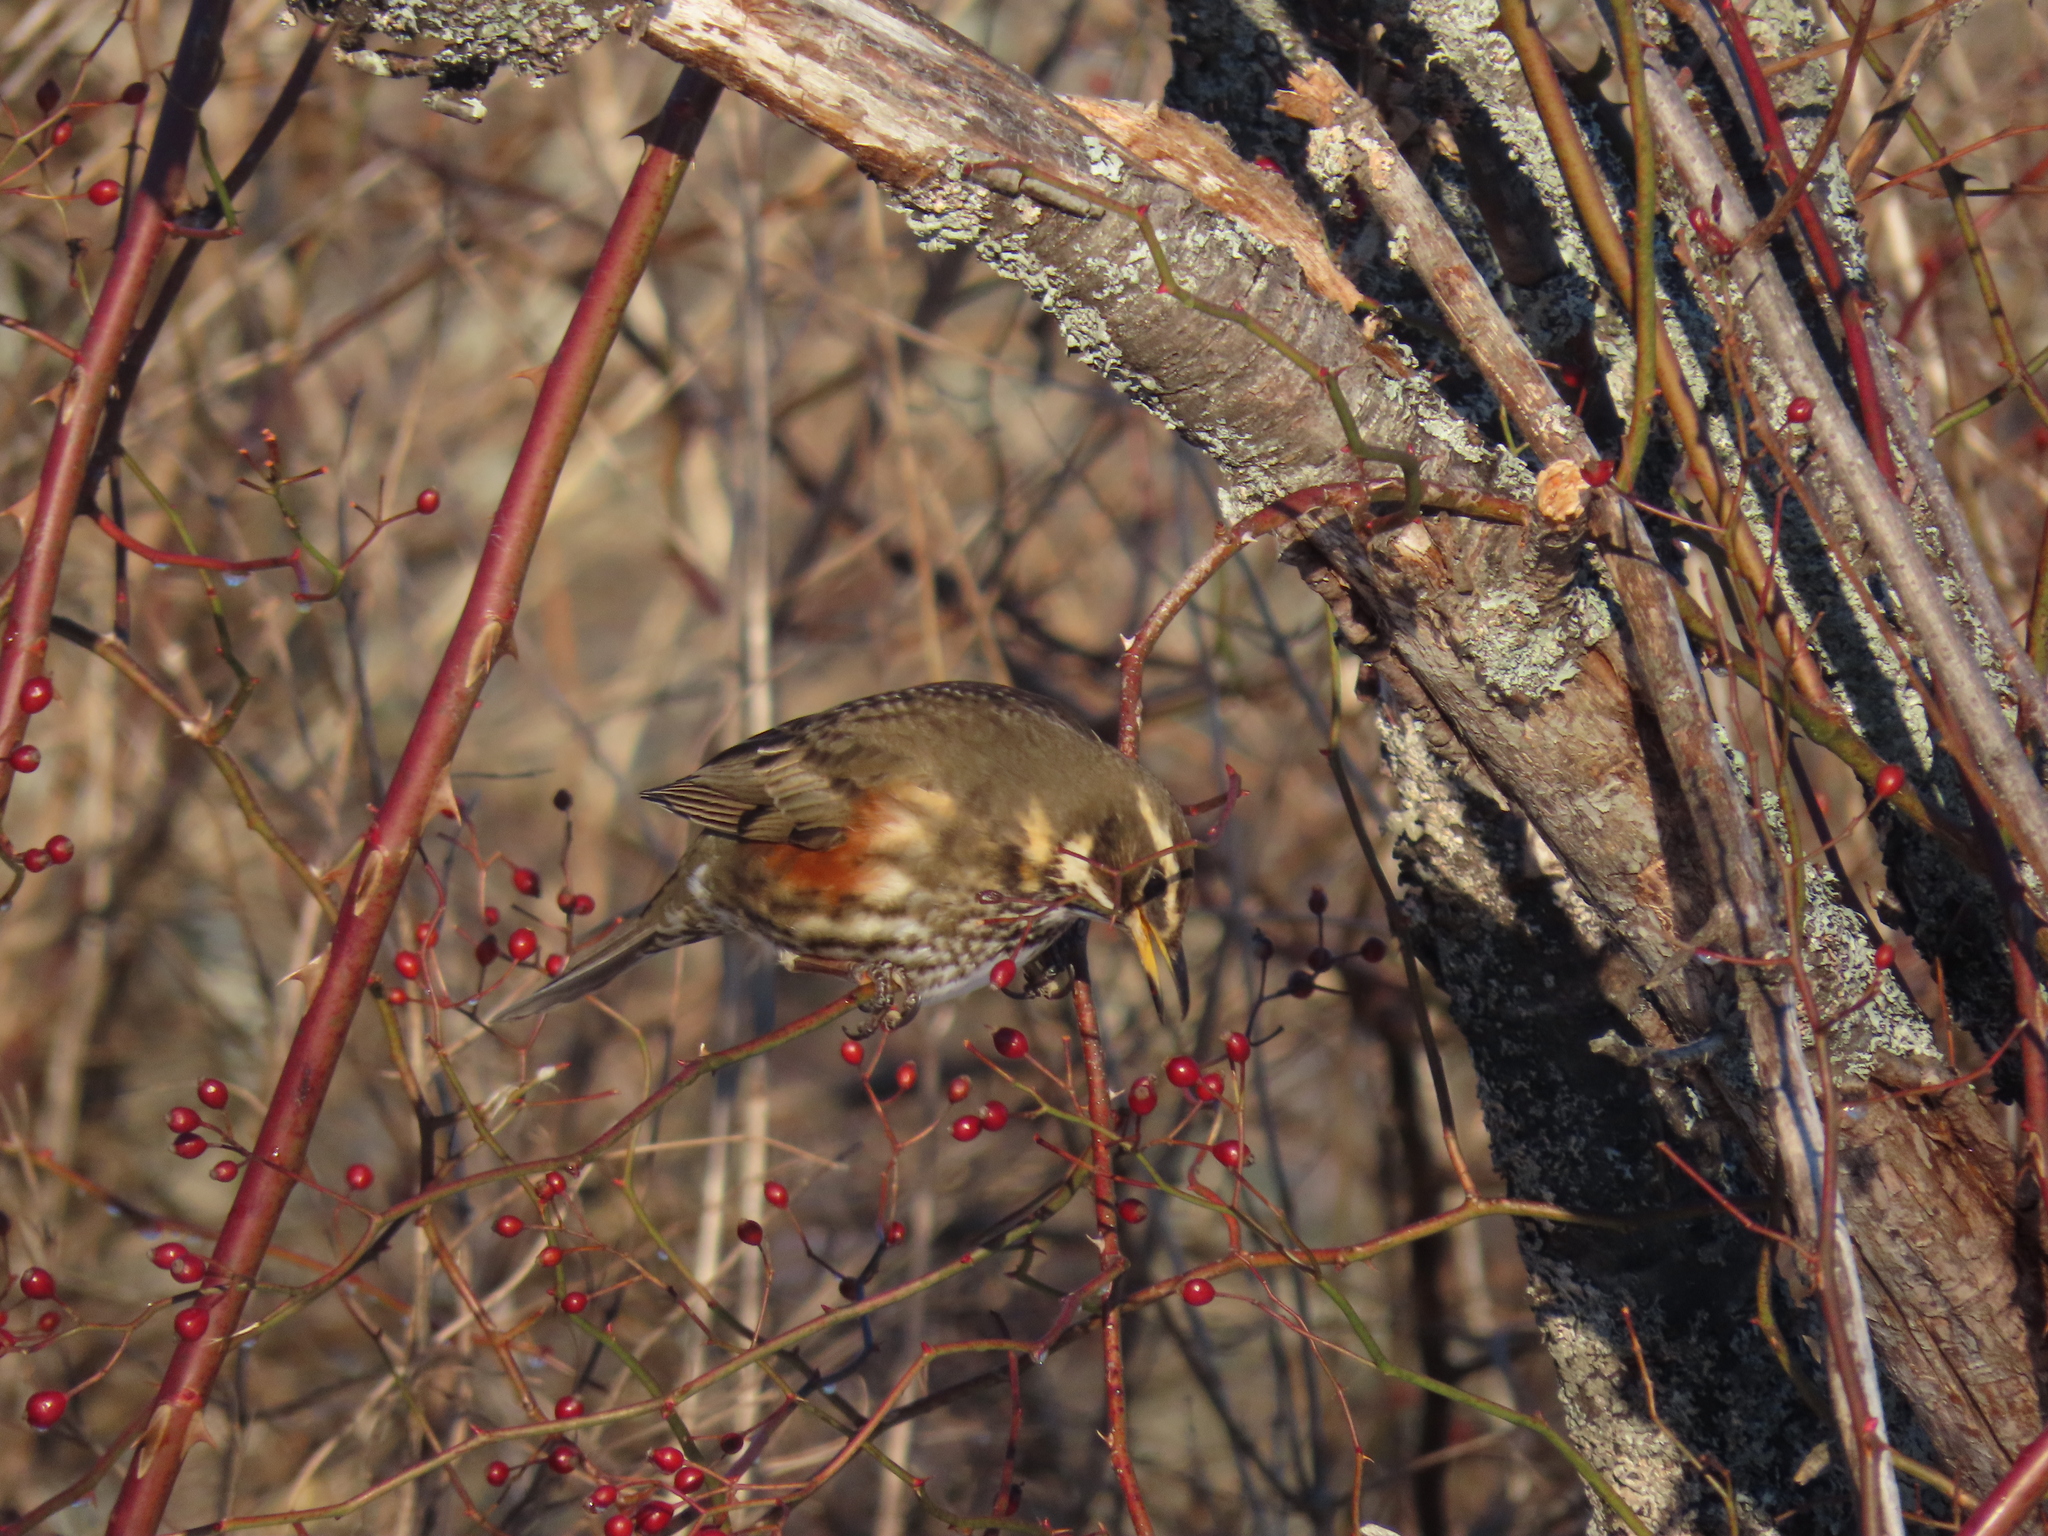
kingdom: Animalia
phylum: Chordata
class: Aves
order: Passeriformes
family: Turdidae
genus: Turdus
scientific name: Turdus iliacus
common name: Redwing
